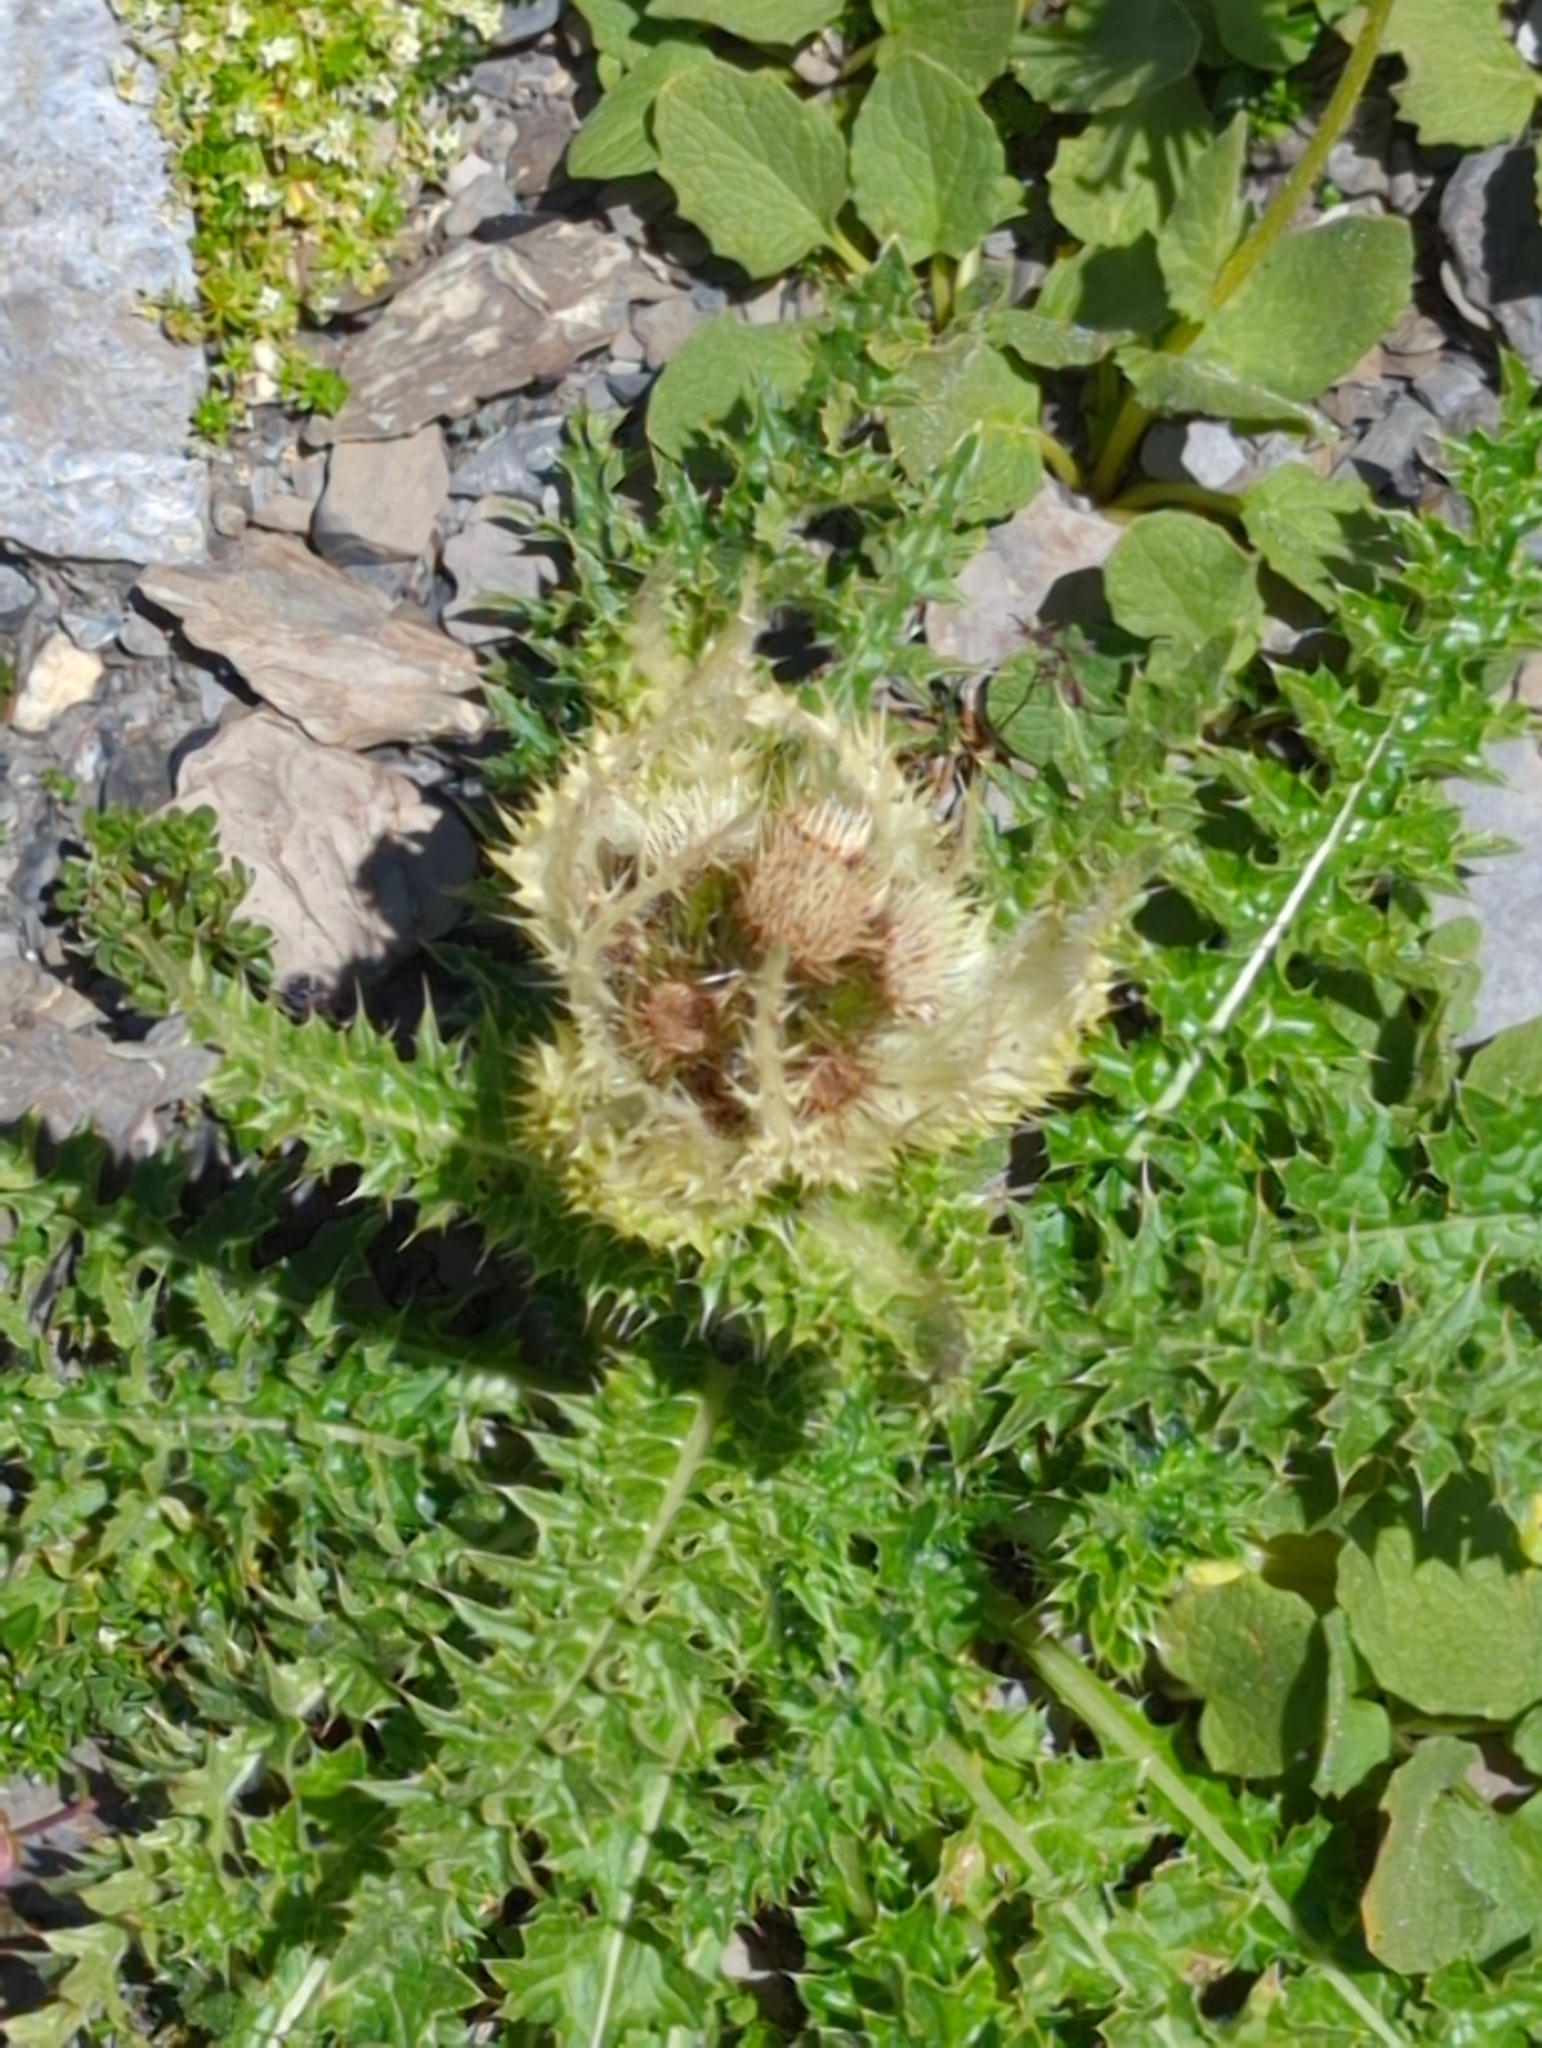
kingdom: Plantae
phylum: Tracheophyta
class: Magnoliopsida
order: Asterales
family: Asteraceae
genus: Cirsium
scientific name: Cirsium spinosissimum
